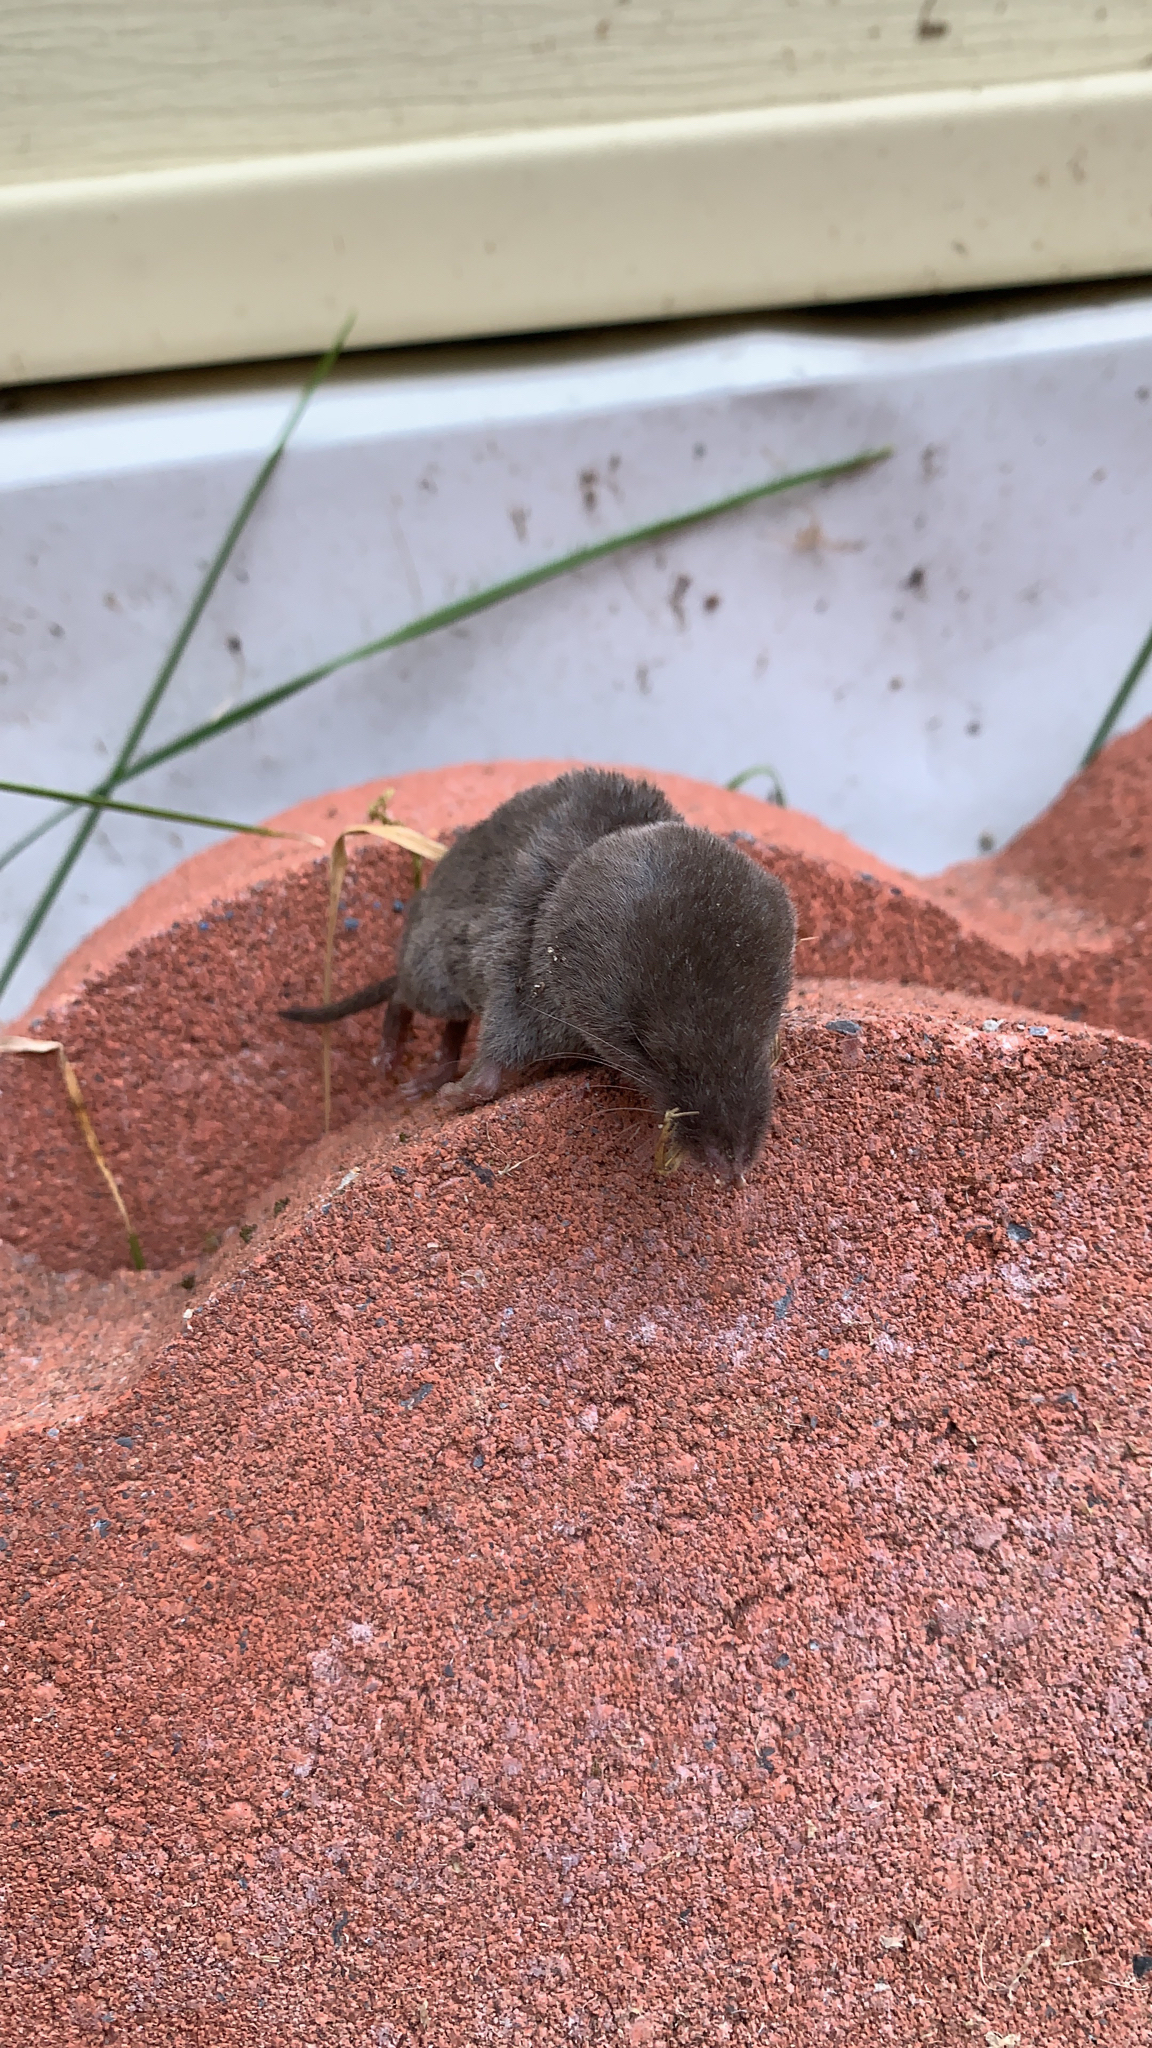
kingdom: Animalia
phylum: Chordata
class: Mammalia
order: Soricomorpha
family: Soricidae
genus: Blarina
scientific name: Blarina brevicauda
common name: Northern short-tailed shrew
